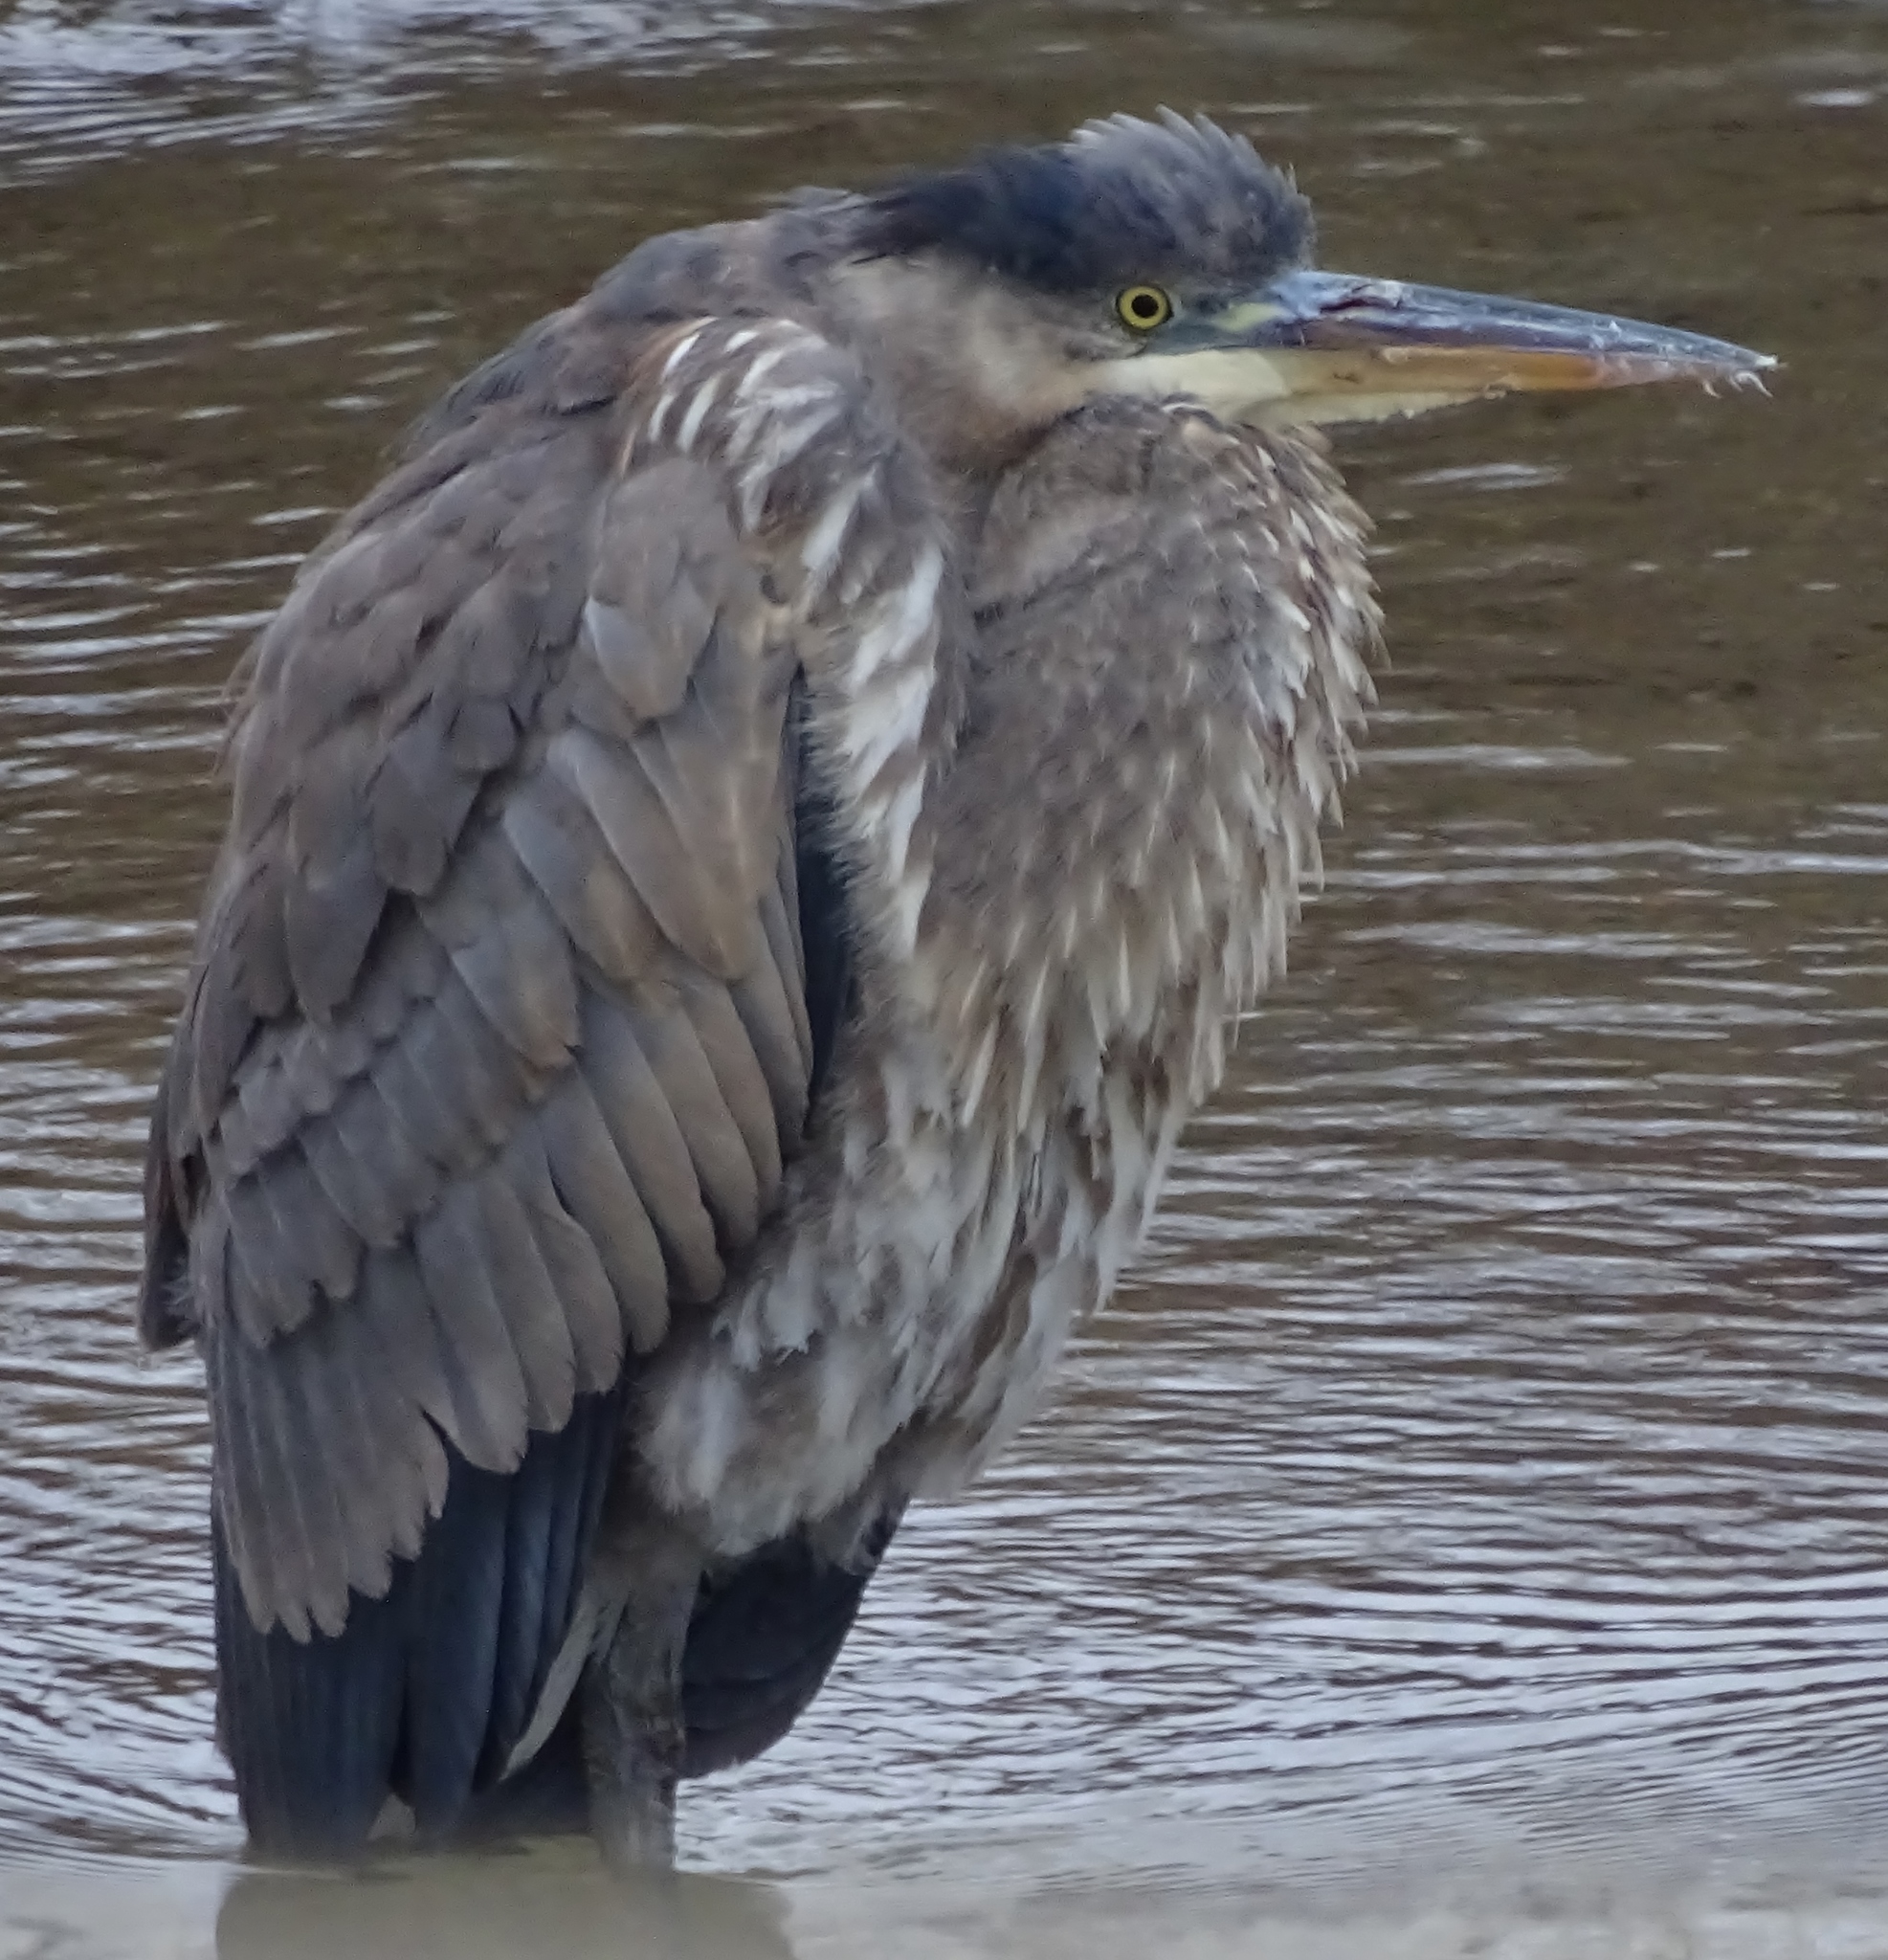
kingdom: Animalia
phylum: Chordata
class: Aves
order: Pelecaniformes
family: Ardeidae
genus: Ardea
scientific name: Ardea herodias
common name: Great blue heron
